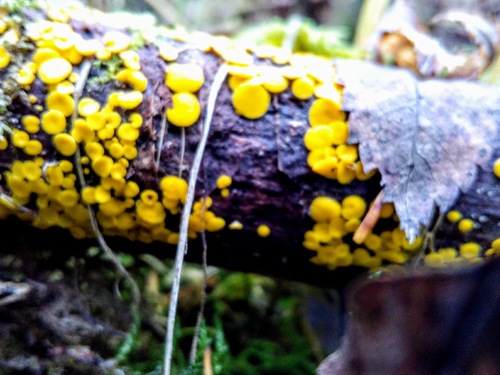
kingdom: Fungi
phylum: Ascomycota
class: Leotiomycetes
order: Helotiales
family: Pezizellaceae
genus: Calycina
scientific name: Calycina citrina
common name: Yellow fairy cups
